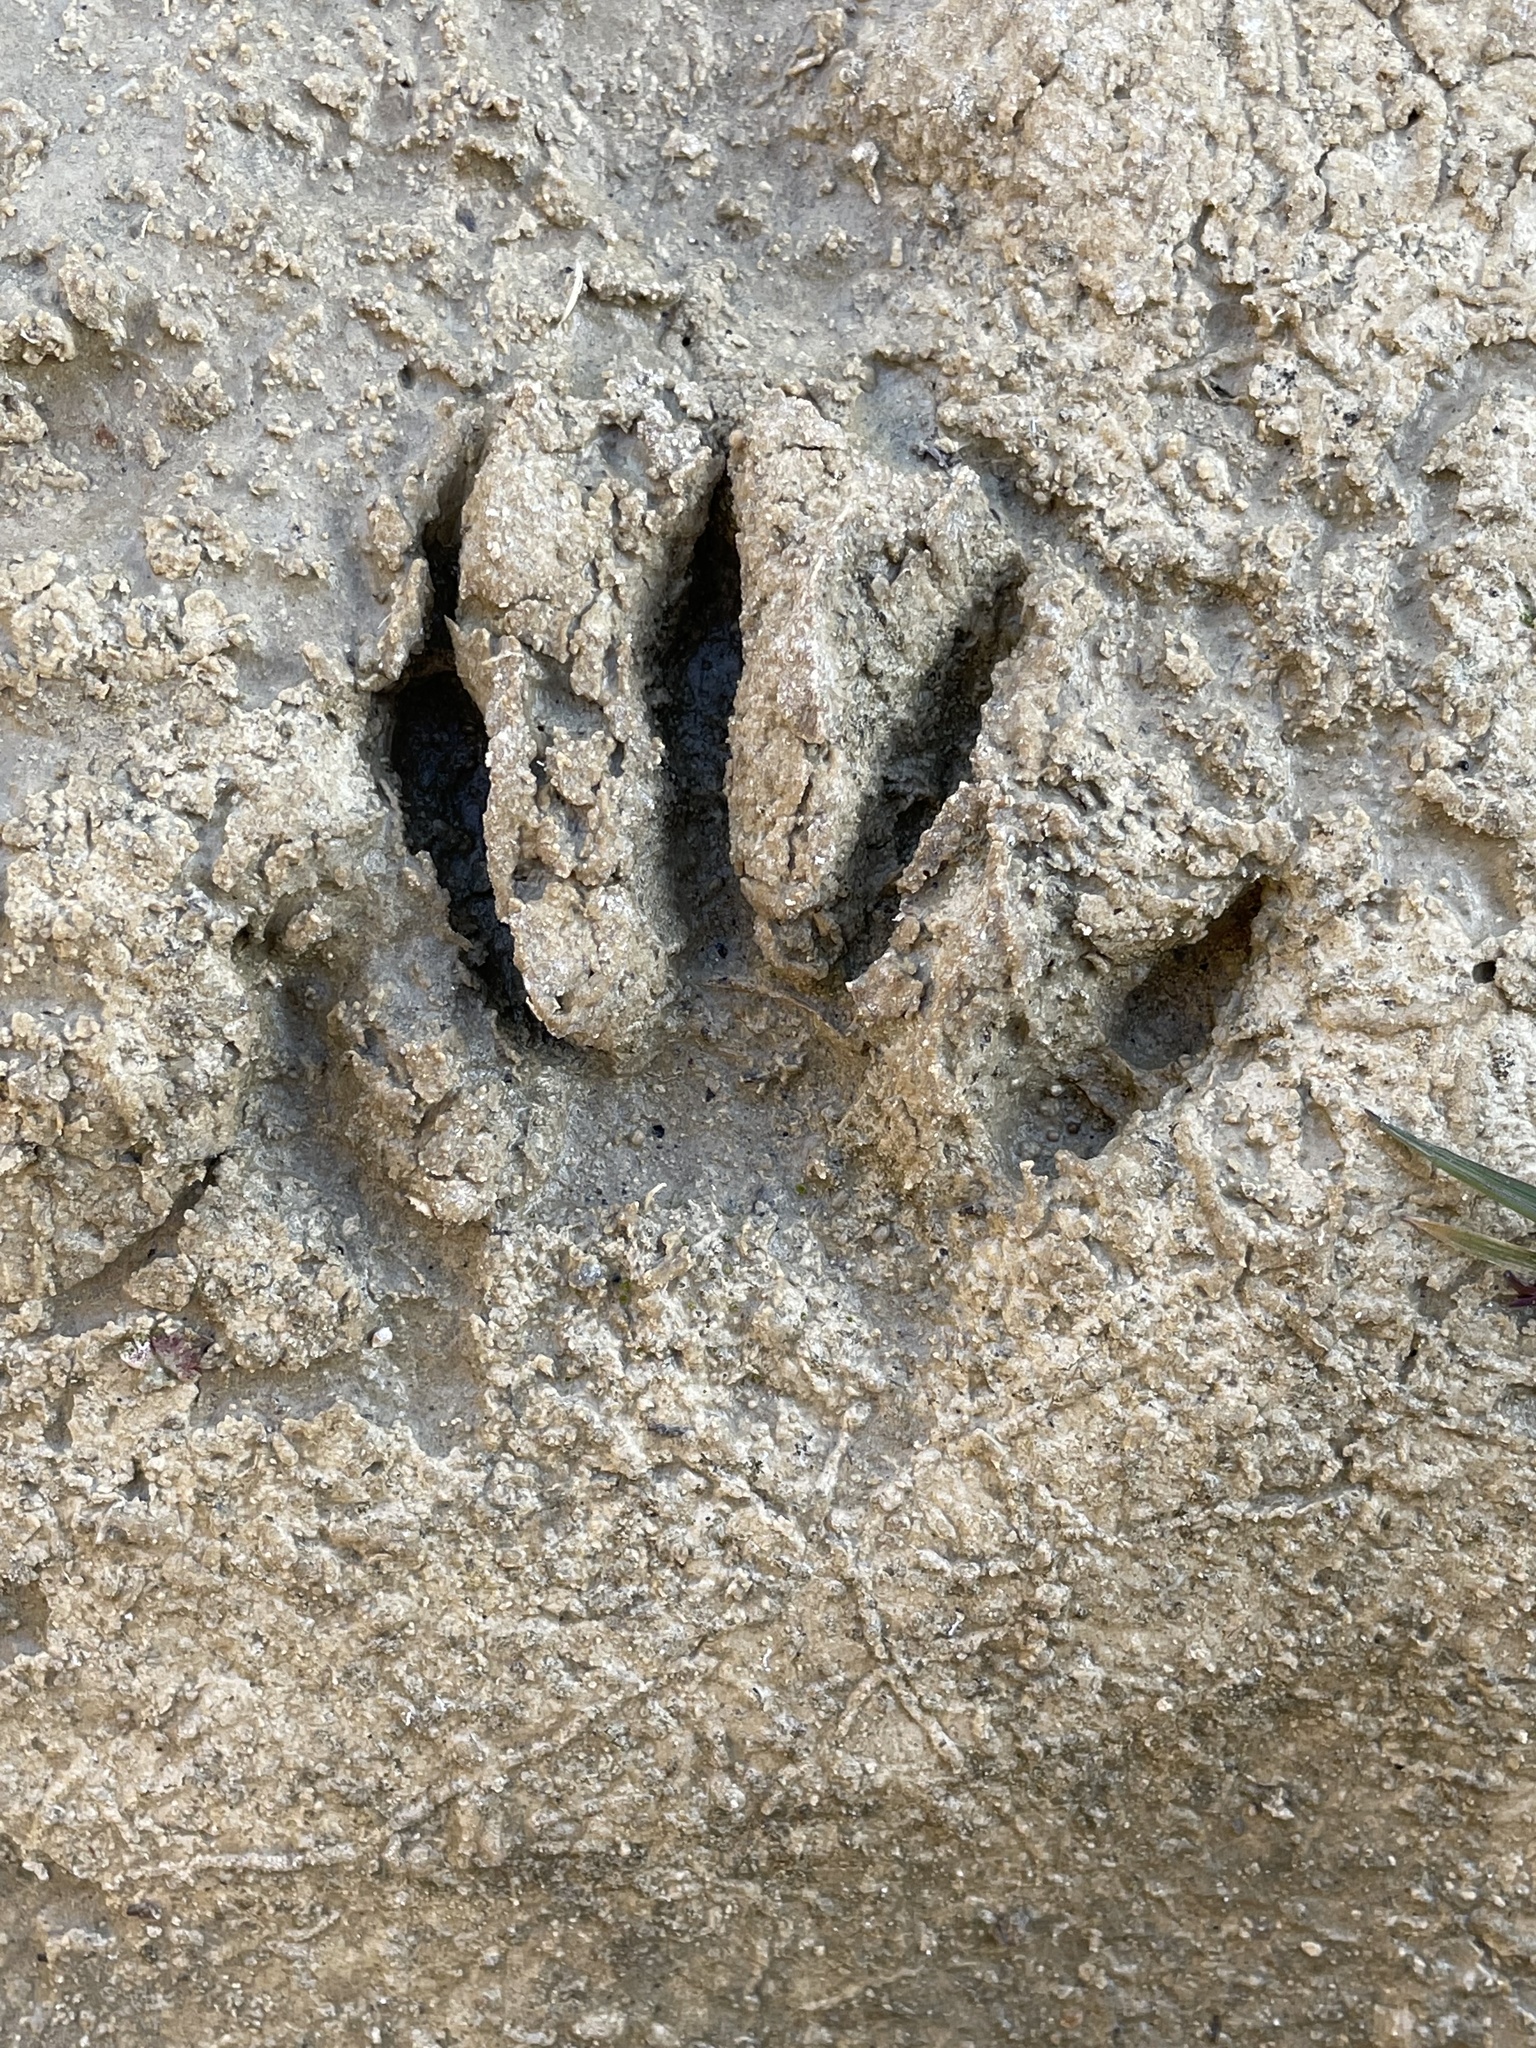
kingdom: Animalia
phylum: Chordata
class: Mammalia
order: Carnivora
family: Procyonidae
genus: Procyon
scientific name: Procyon lotor
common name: Raccoon
